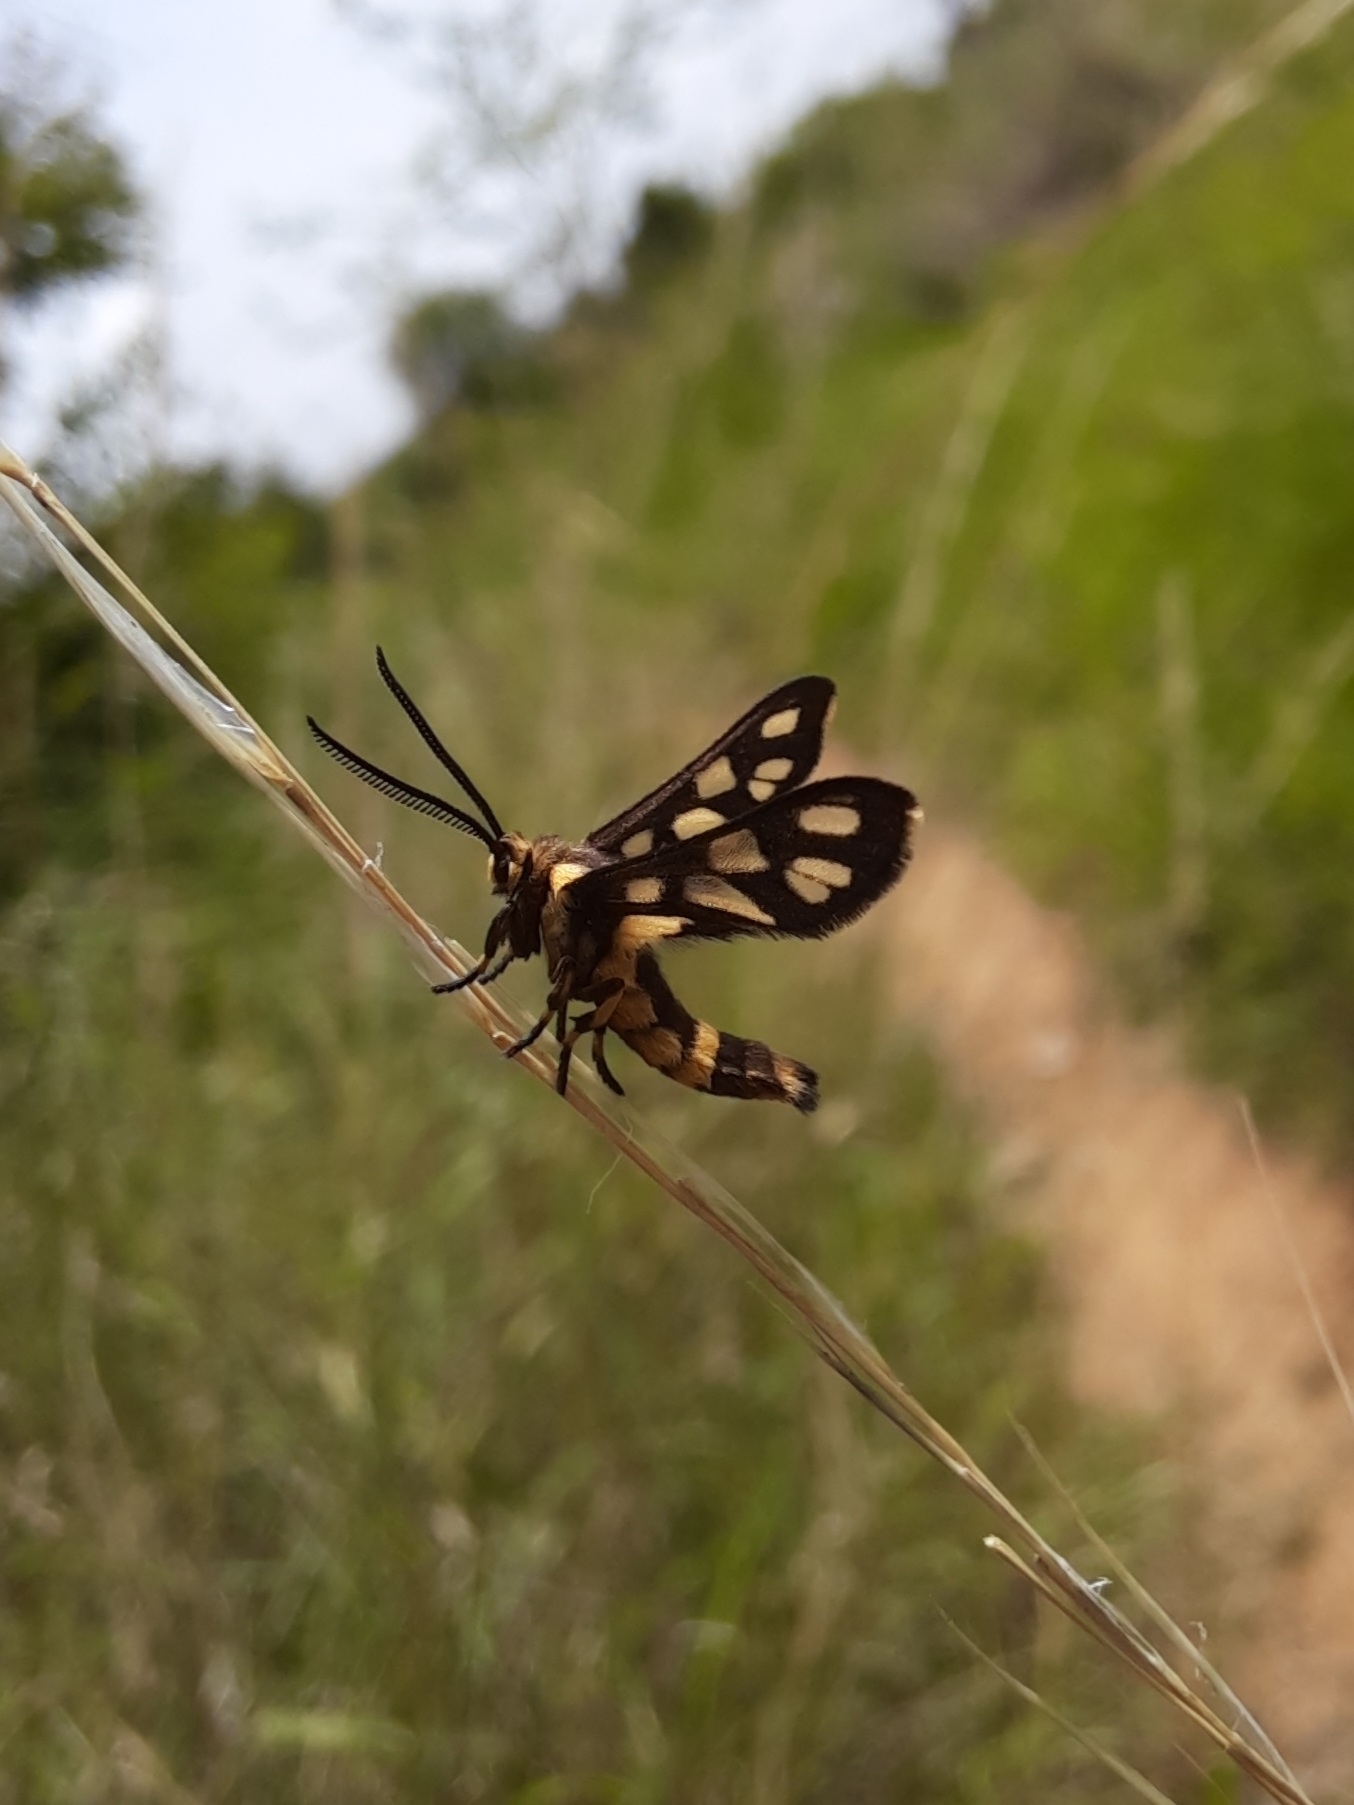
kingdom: Animalia
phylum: Arthropoda
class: Insecta
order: Lepidoptera
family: Erebidae
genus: Amata
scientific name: Amata cyssea
